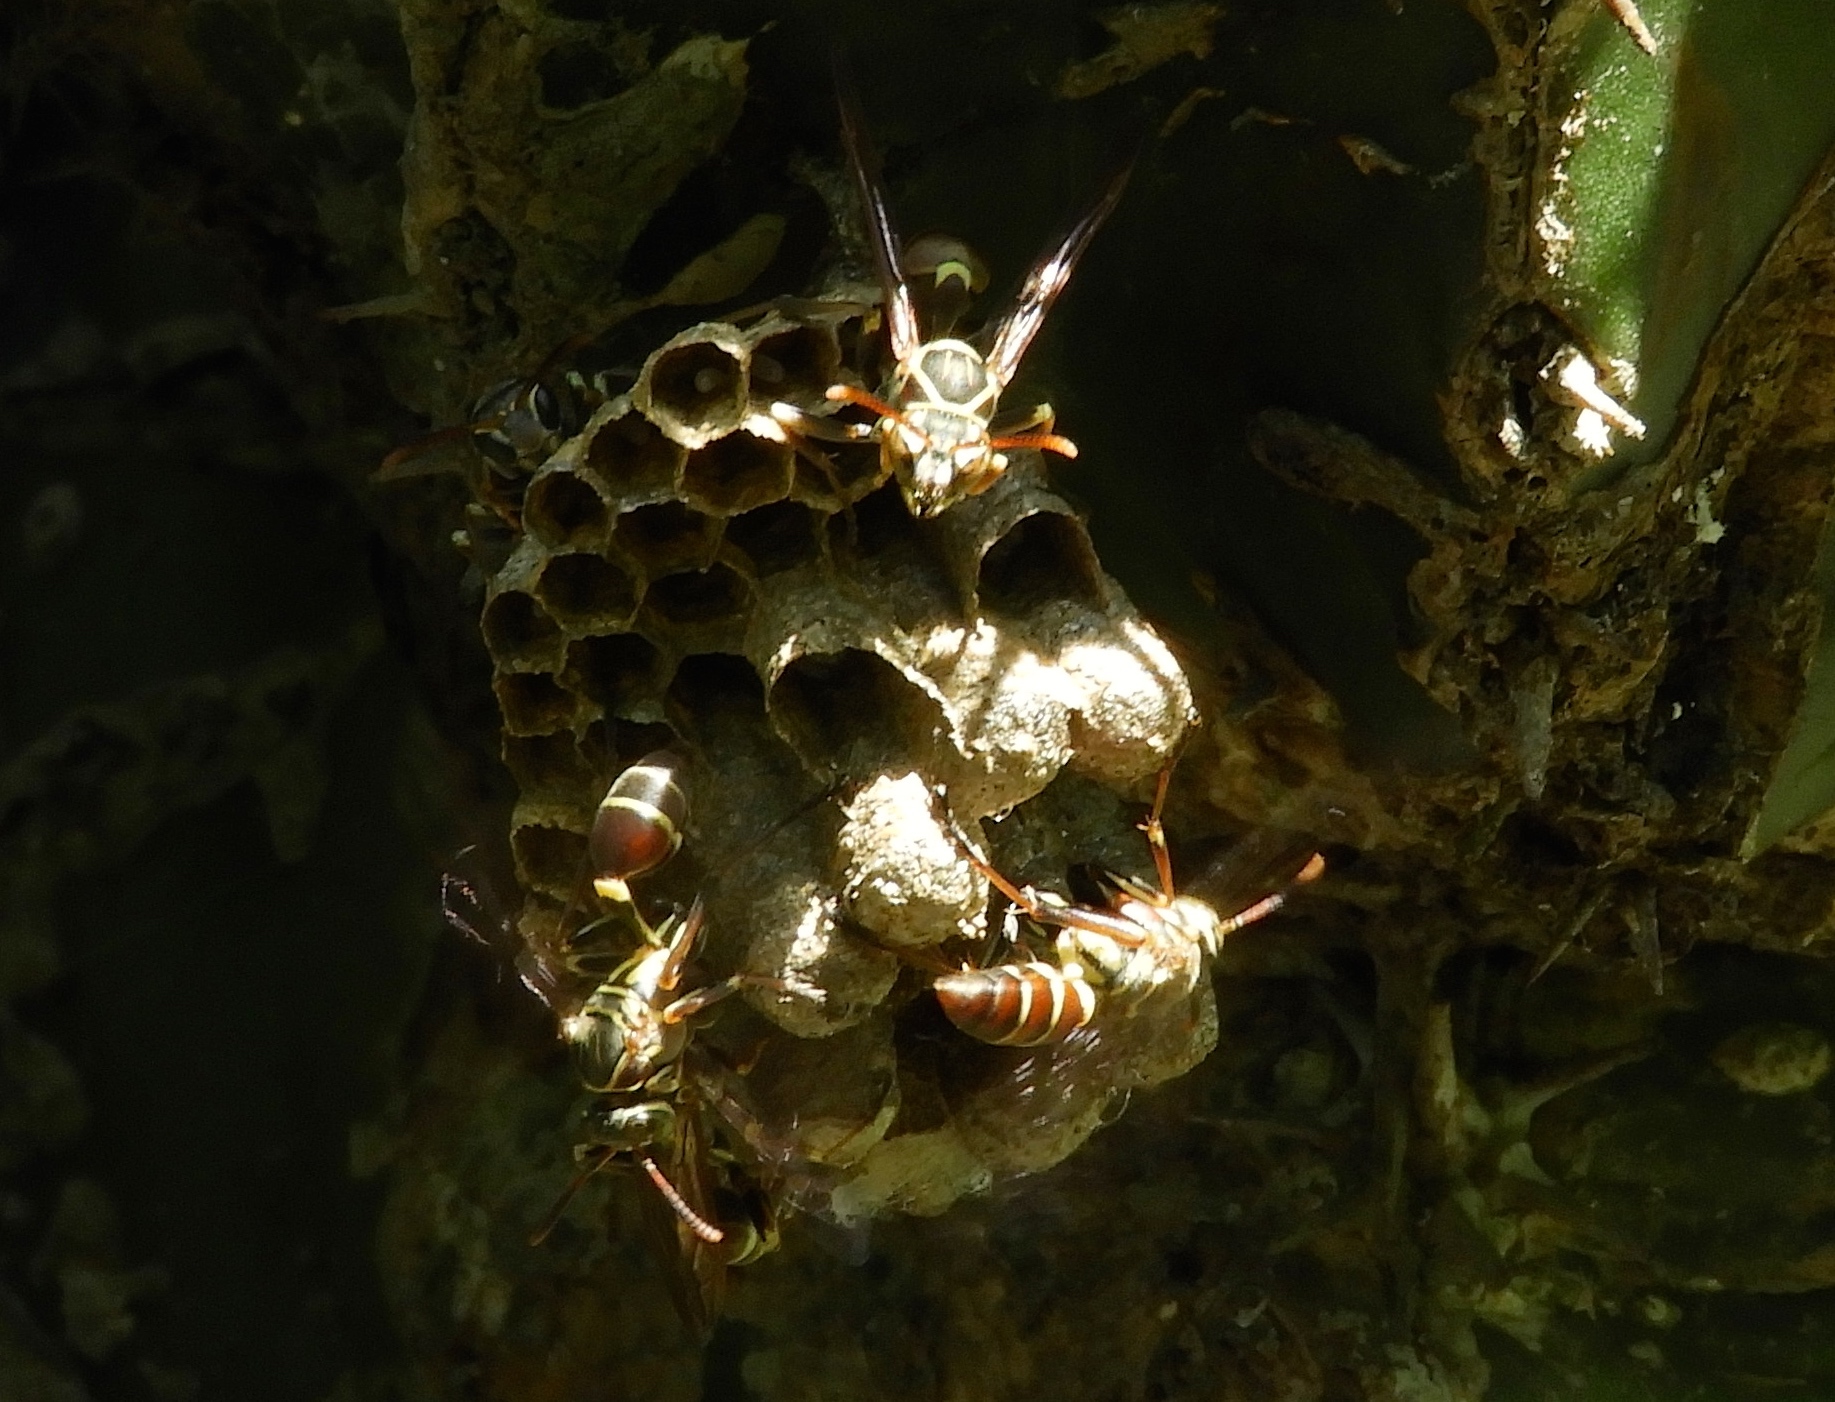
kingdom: Animalia
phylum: Arthropoda
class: Insecta
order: Hymenoptera
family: Vespidae
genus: Mischocyttarus
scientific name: Mischocyttarus
